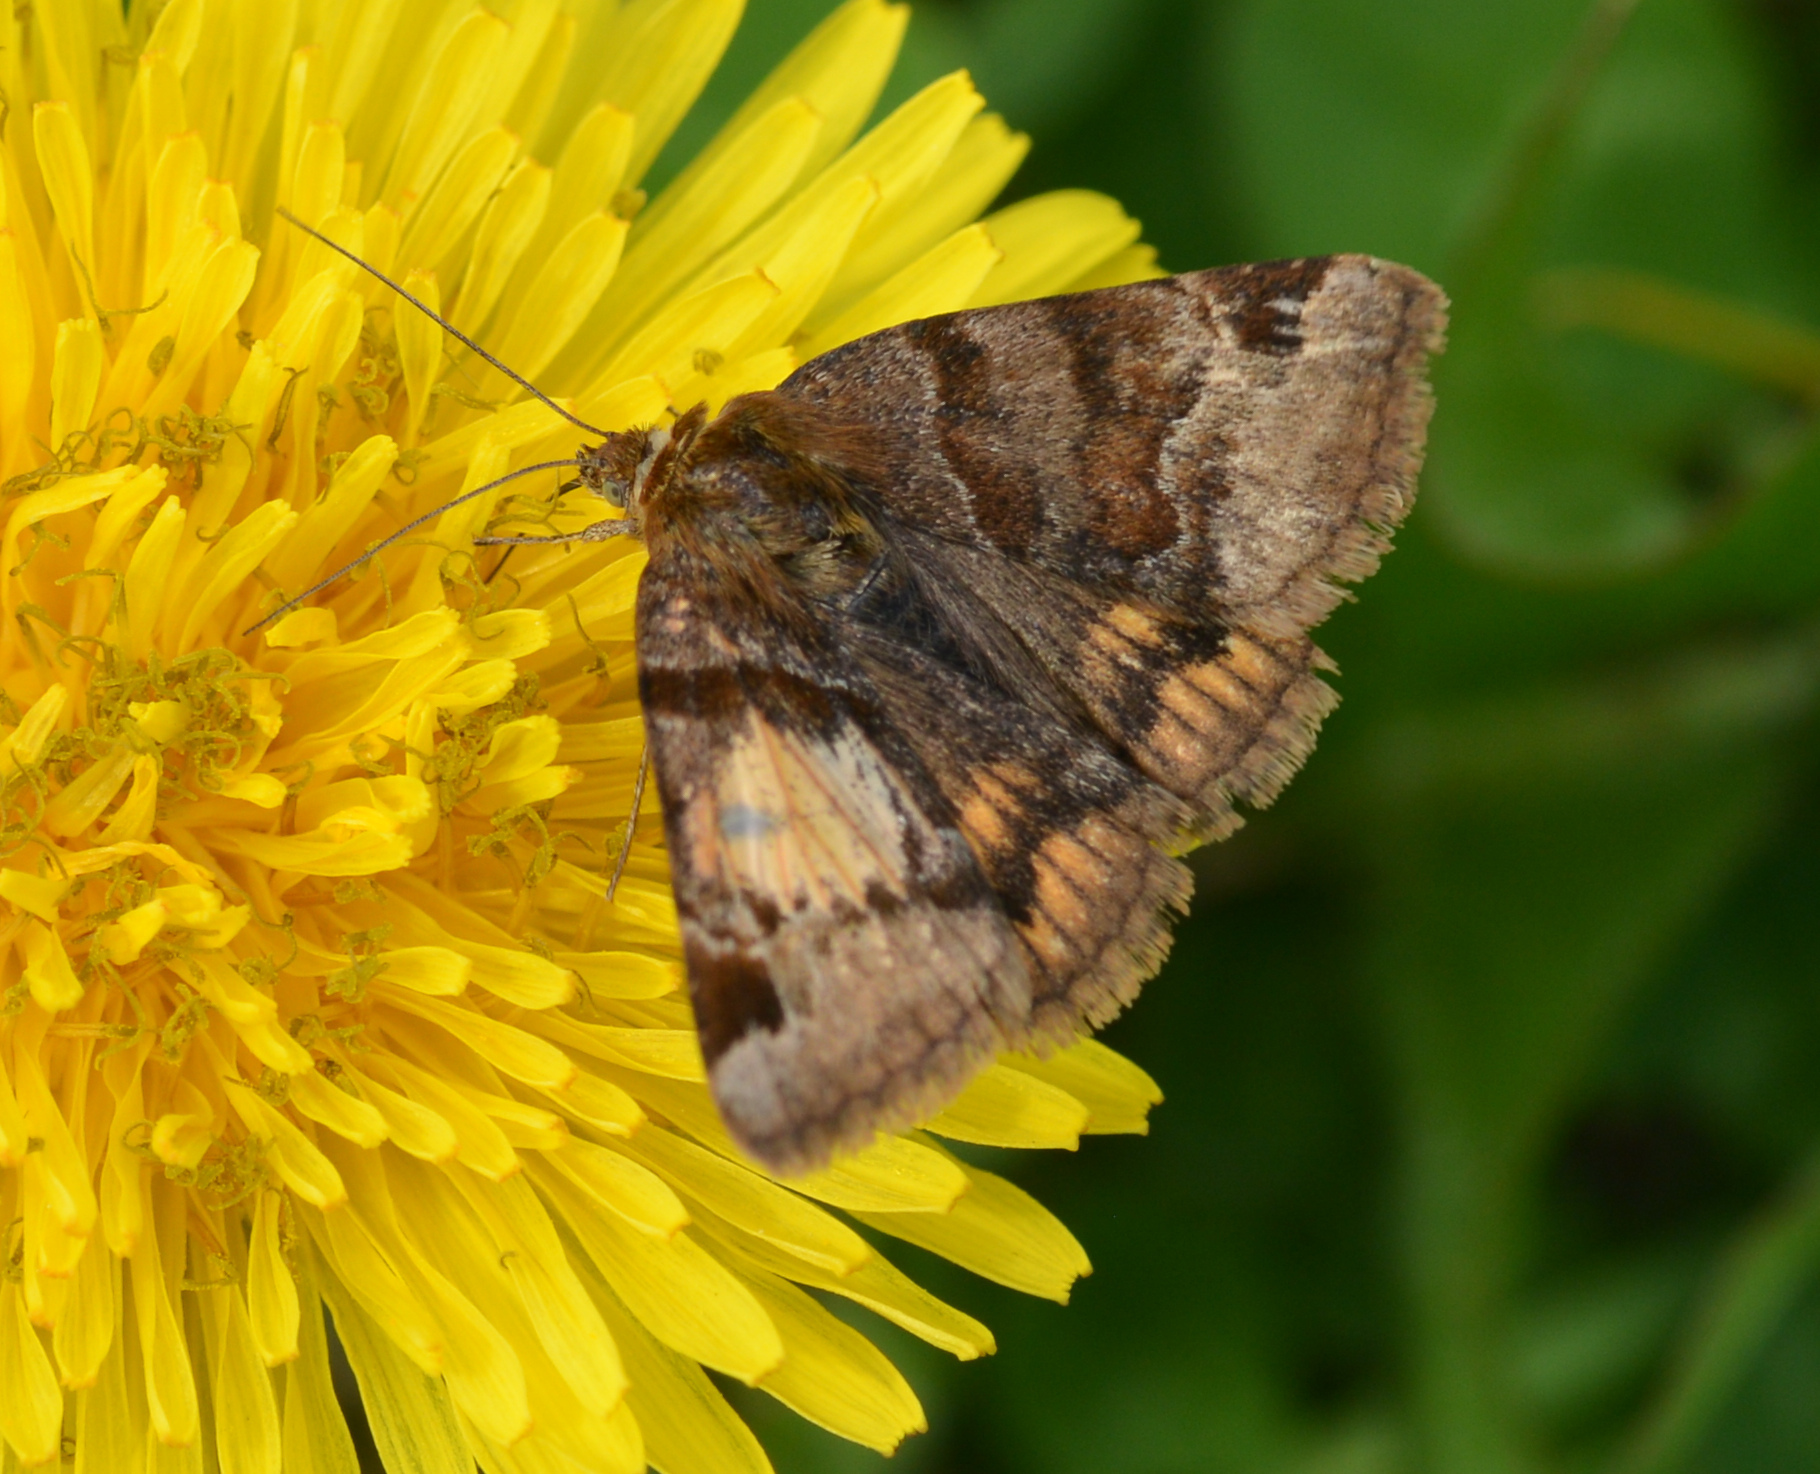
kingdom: Animalia
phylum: Arthropoda
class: Insecta
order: Lepidoptera
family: Erebidae
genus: Euclidia
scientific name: Euclidia glyphica
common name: Burnet companion
